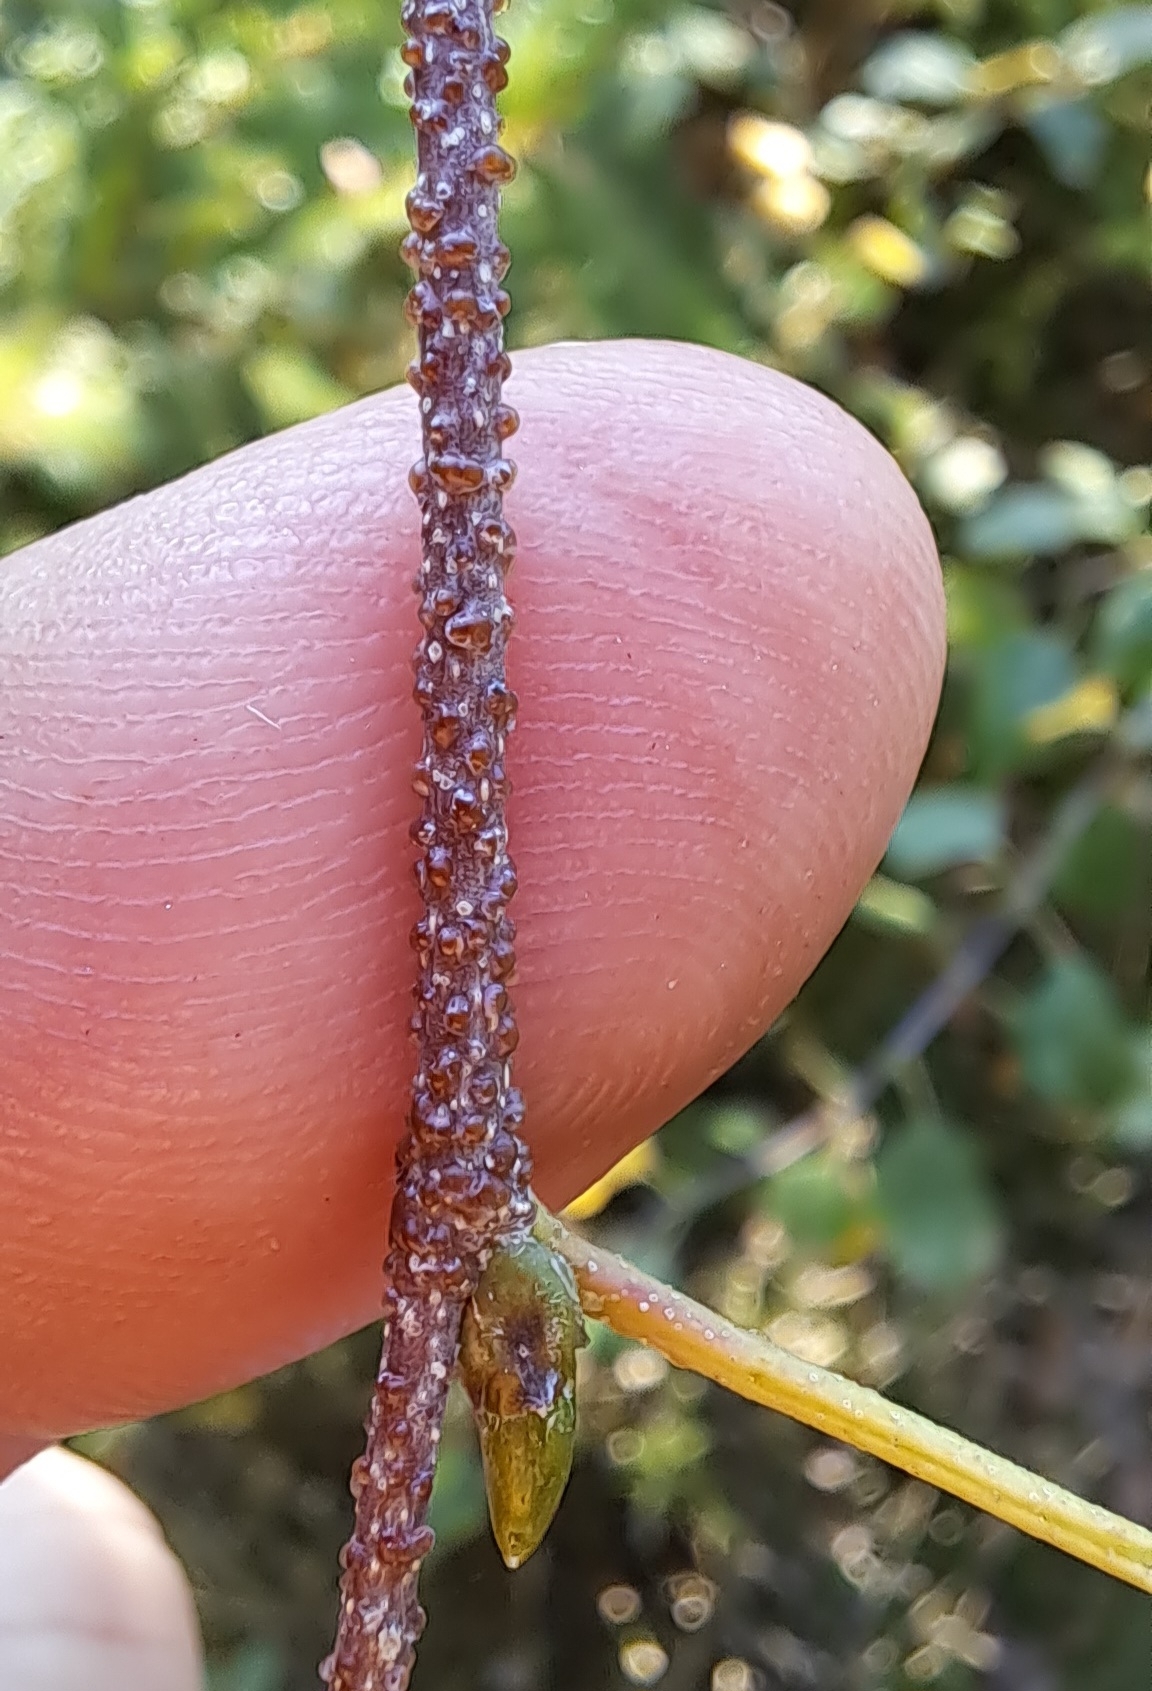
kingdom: Plantae
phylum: Tracheophyta
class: Magnoliopsida
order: Fagales
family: Betulaceae
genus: Betula
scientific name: Betula pendula
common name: Silver birch
